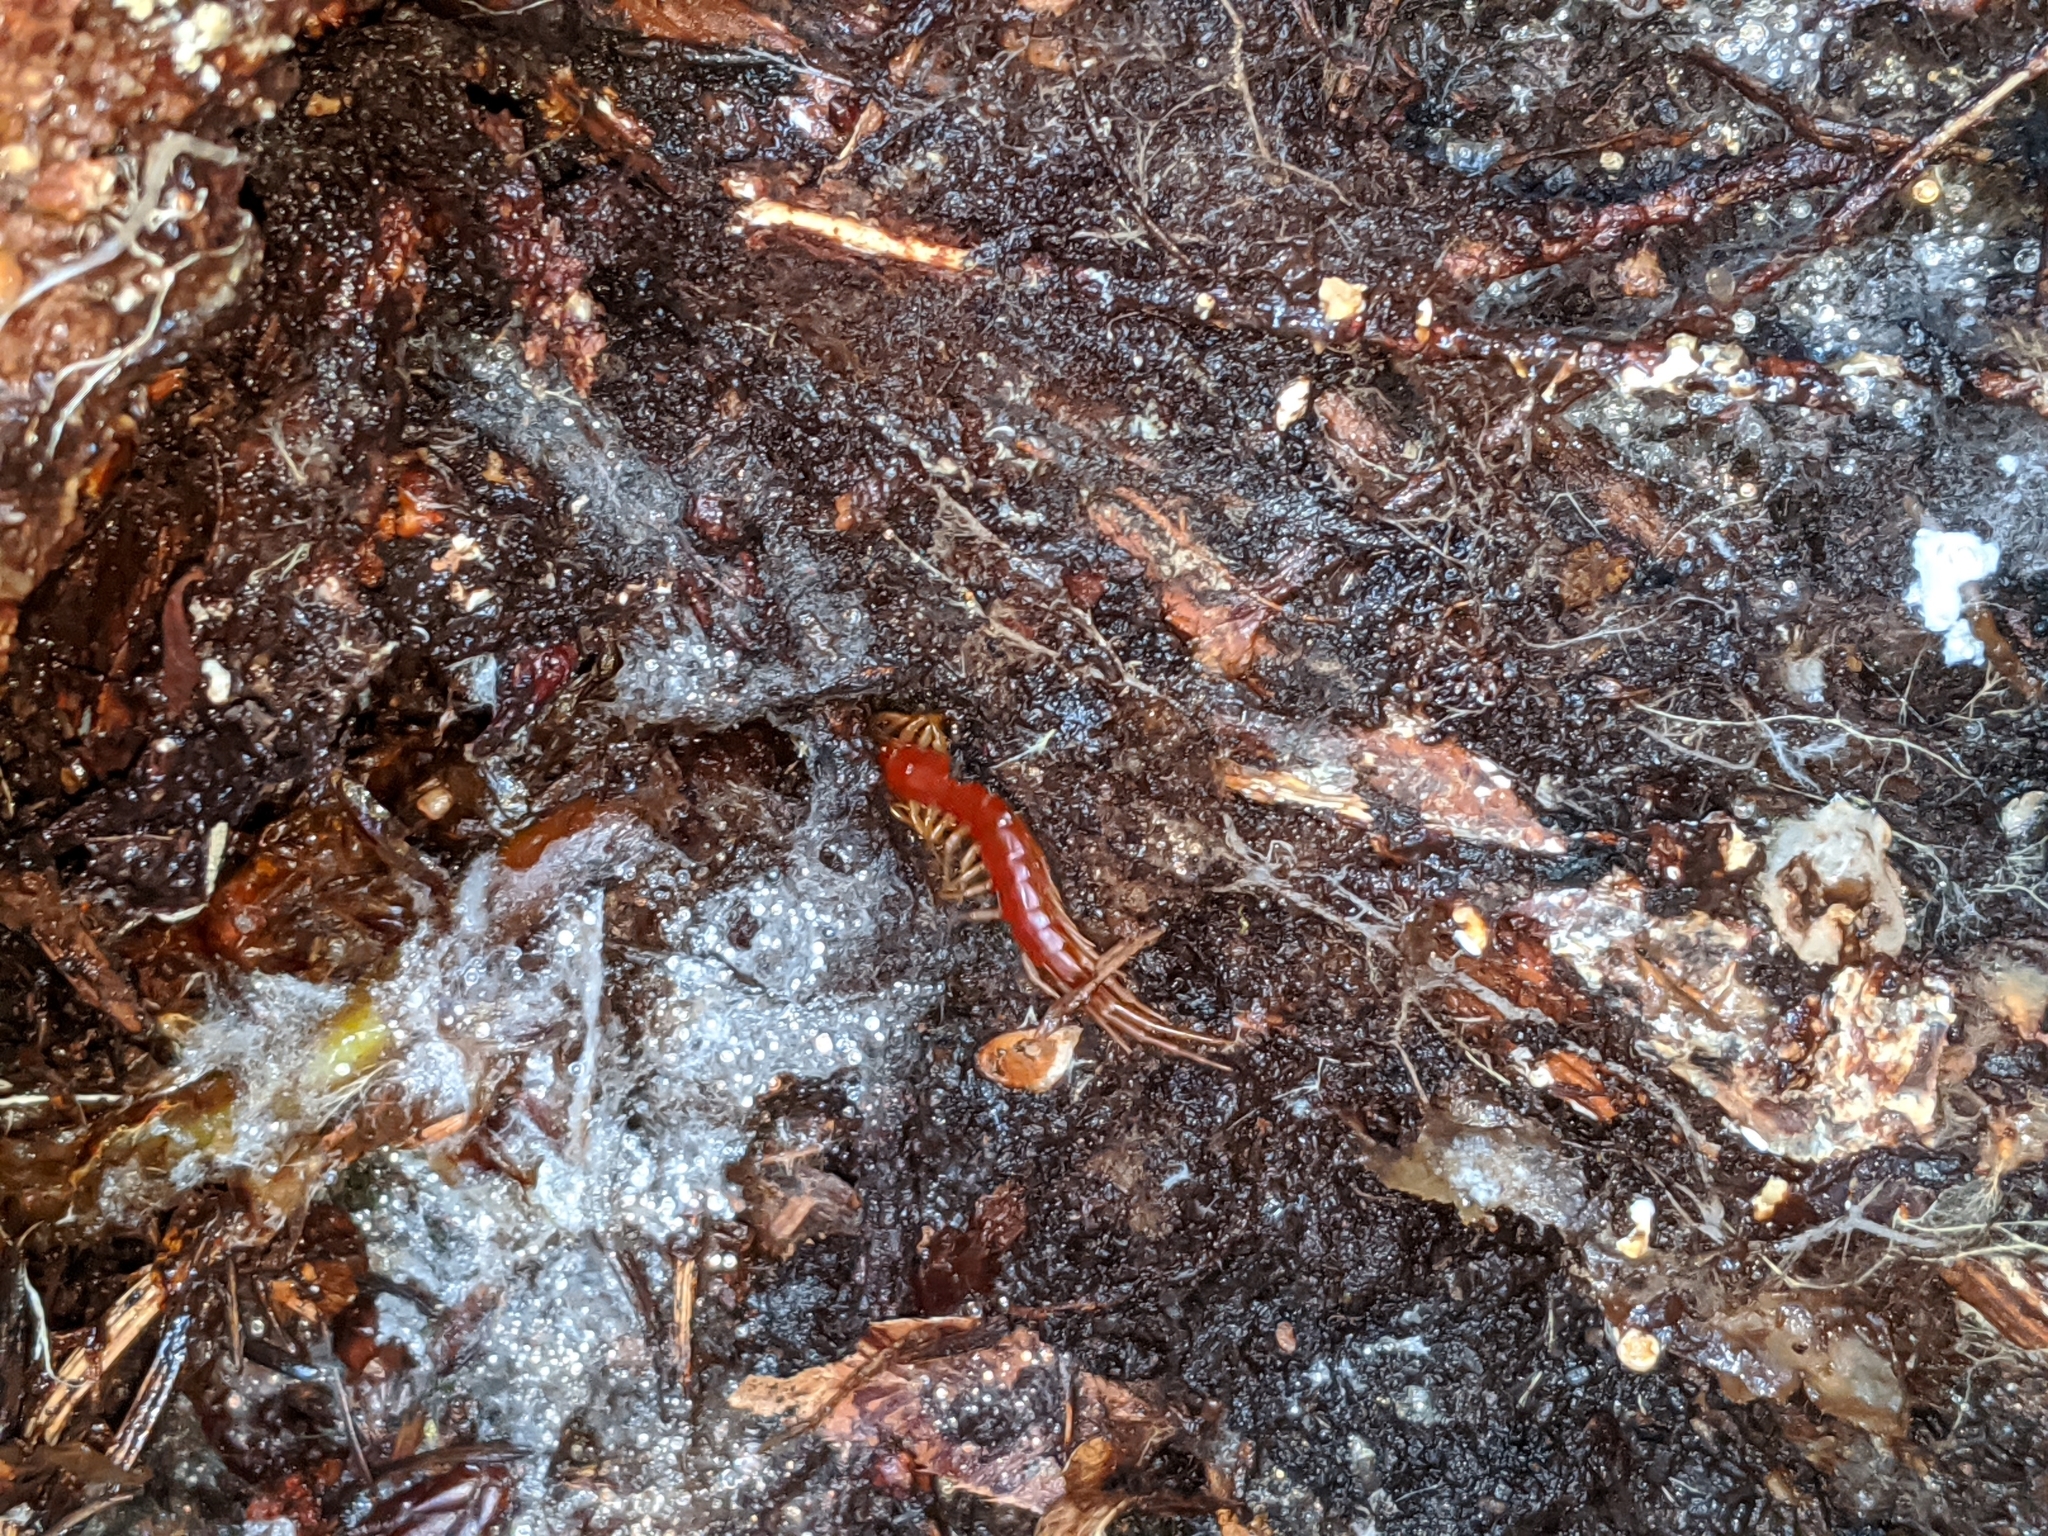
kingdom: Animalia
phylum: Arthropoda
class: Chilopoda
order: Scolopendromorpha
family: Scolopocryptopidae
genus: Scolopocryptops
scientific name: Scolopocryptops spinicaudus
